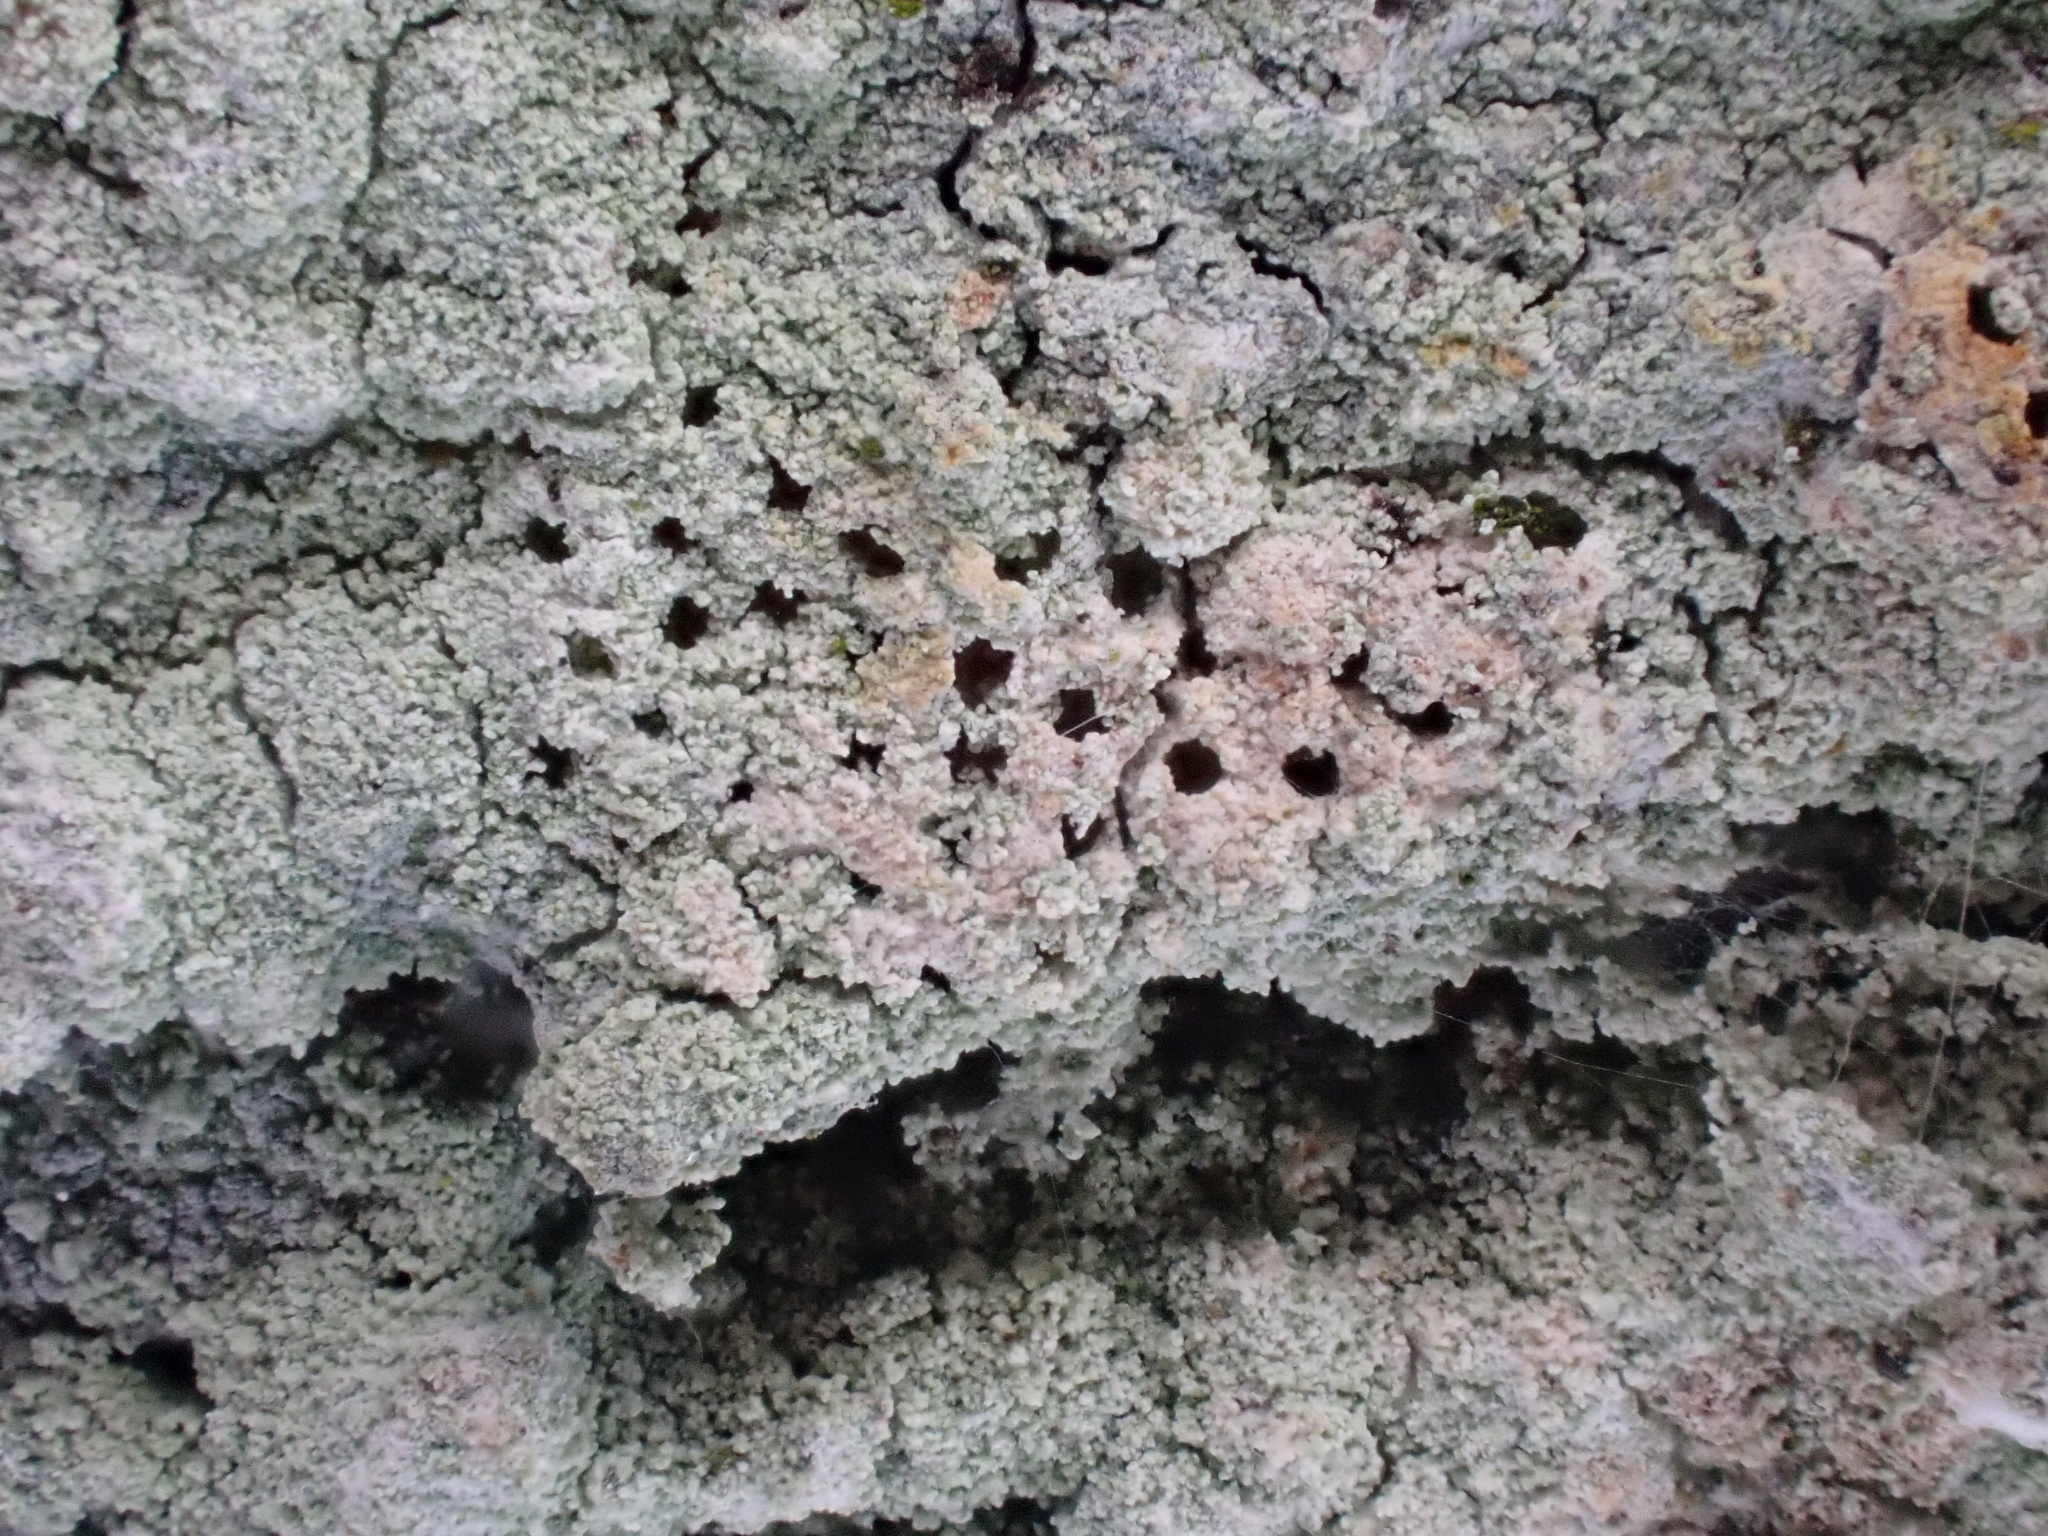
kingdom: Fungi
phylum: Ascomycota
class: Lecanoromycetes
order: Ostropales
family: Phlyctidaceae
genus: Phlyctis
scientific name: Phlyctis argena
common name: Whitewash lichen
